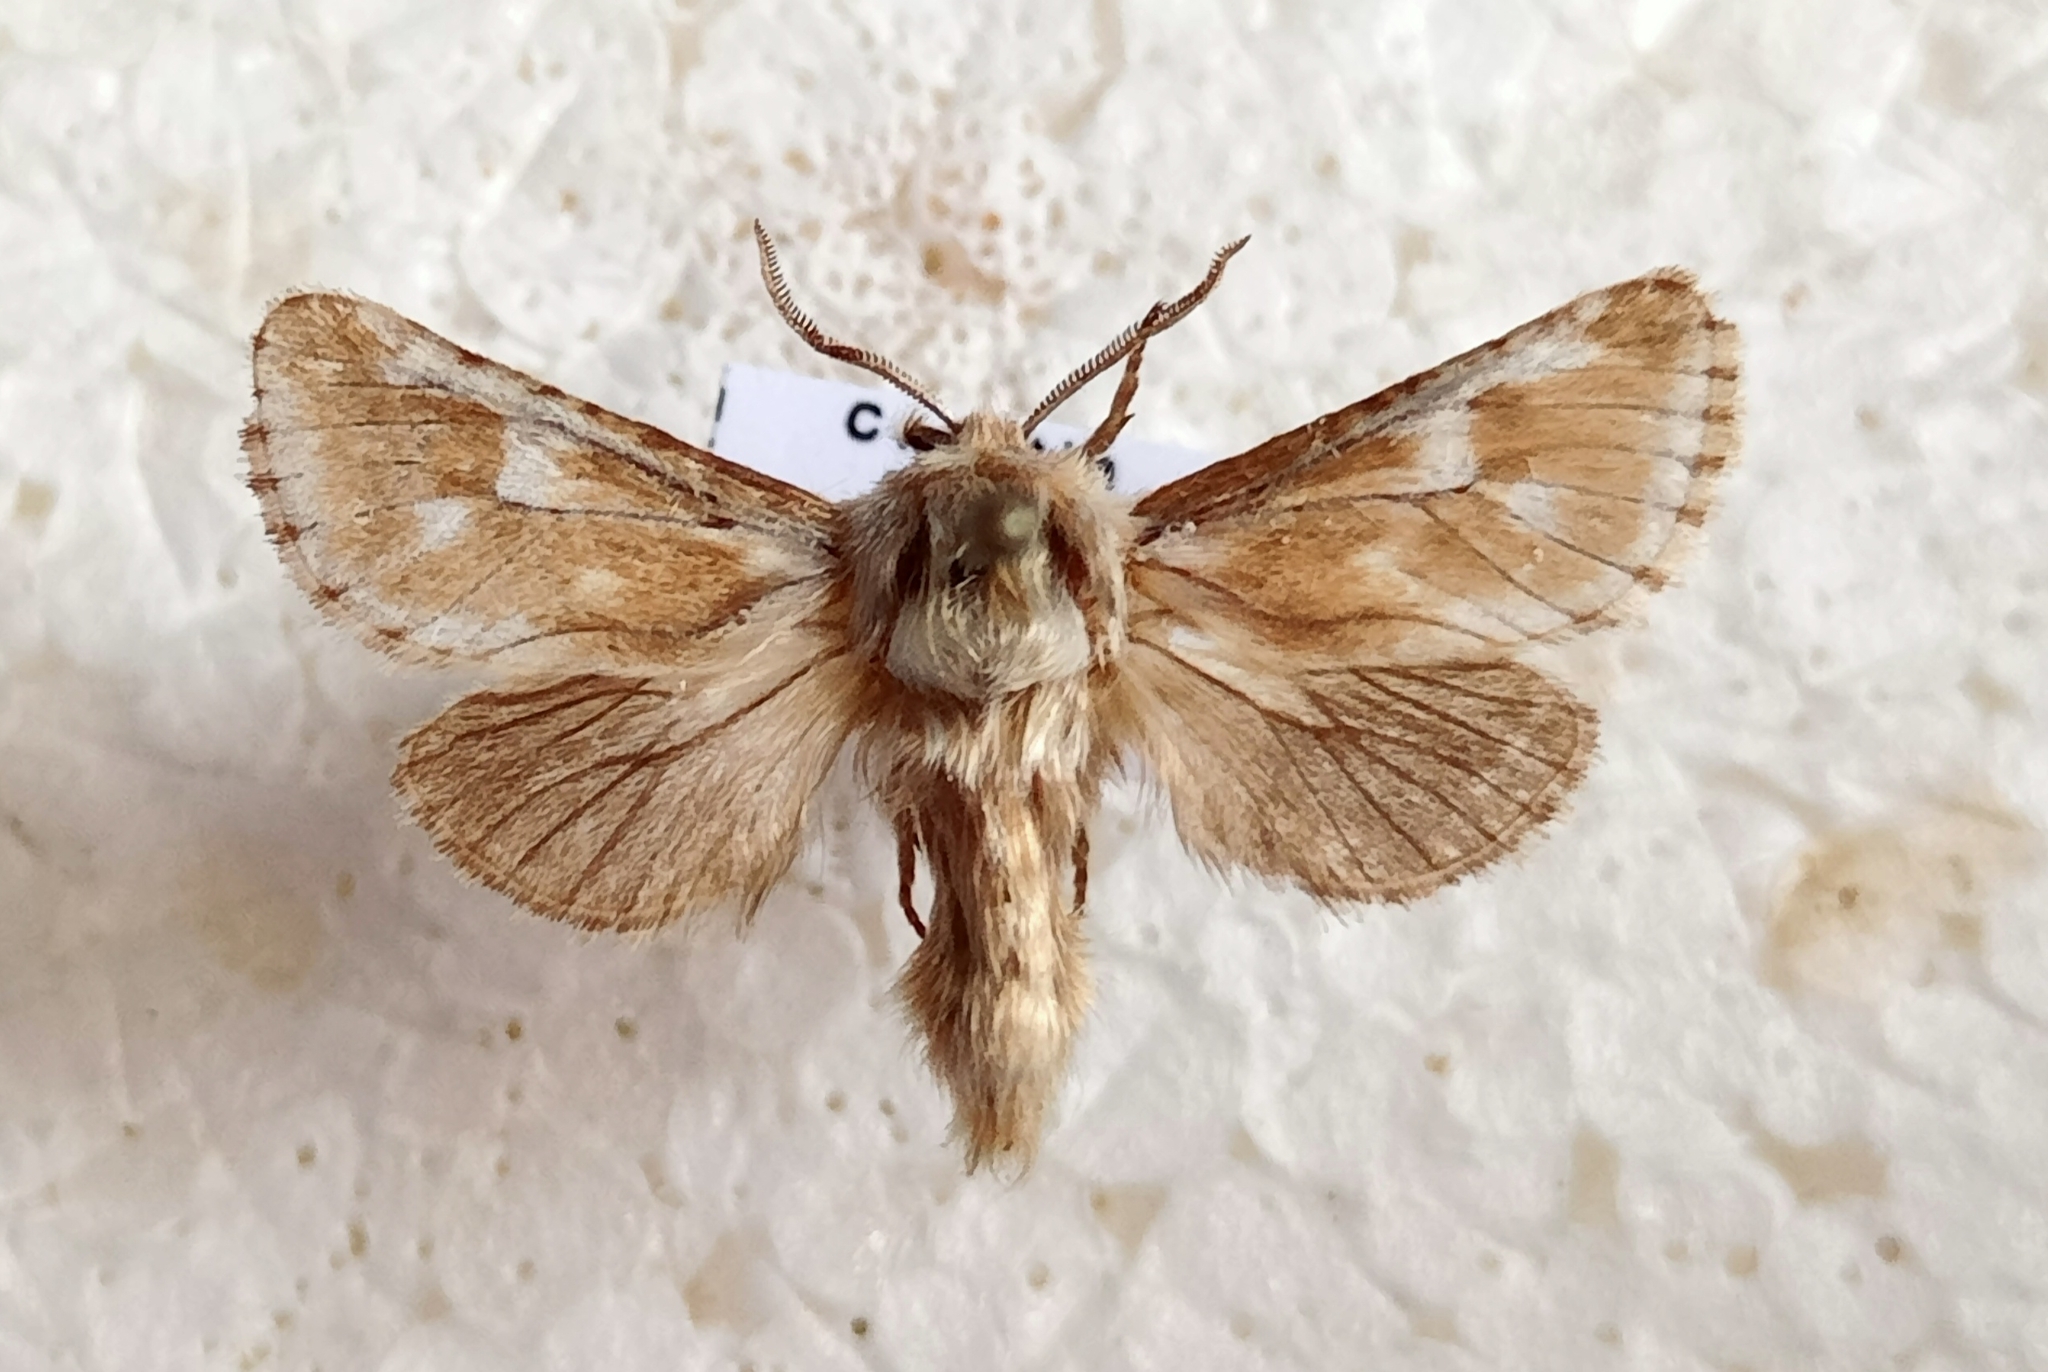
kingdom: Animalia
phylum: Arthropoda
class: Insecta
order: Lepidoptera
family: Cossidae
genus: Dyspessa
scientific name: Dyspessa ulula
